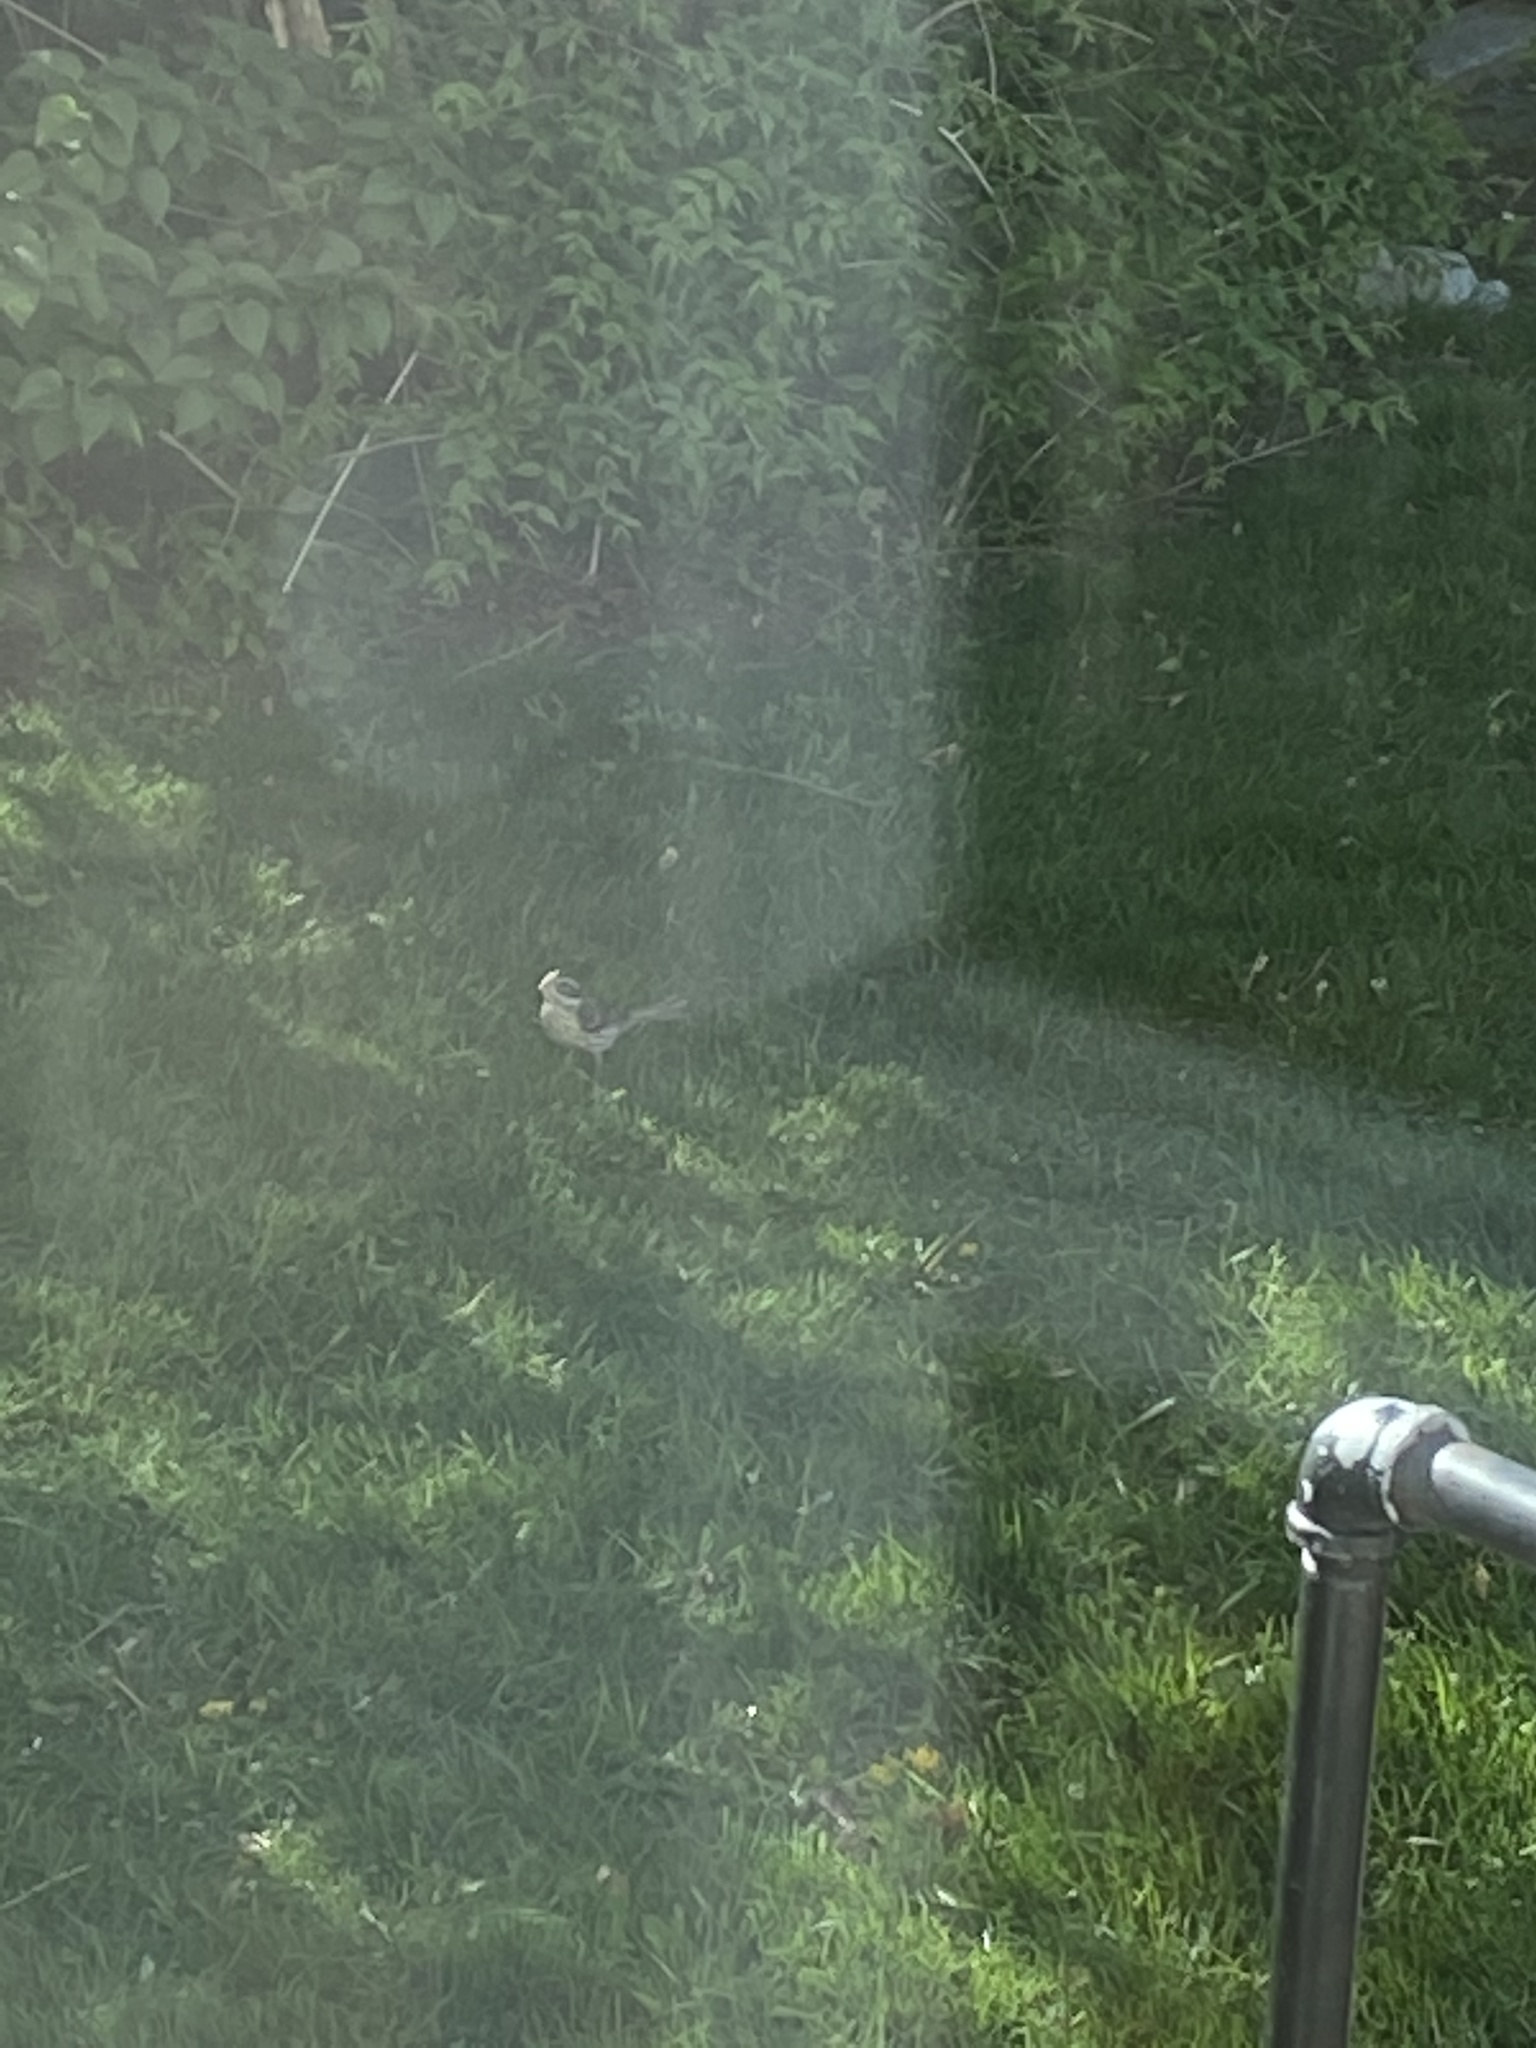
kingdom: Animalia
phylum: Chordata
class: Aves
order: Passeriformes
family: Cardinalidae
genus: Pheucticus
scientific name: Pheucticus ludovicianus
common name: Rose-breasted grosbeak
